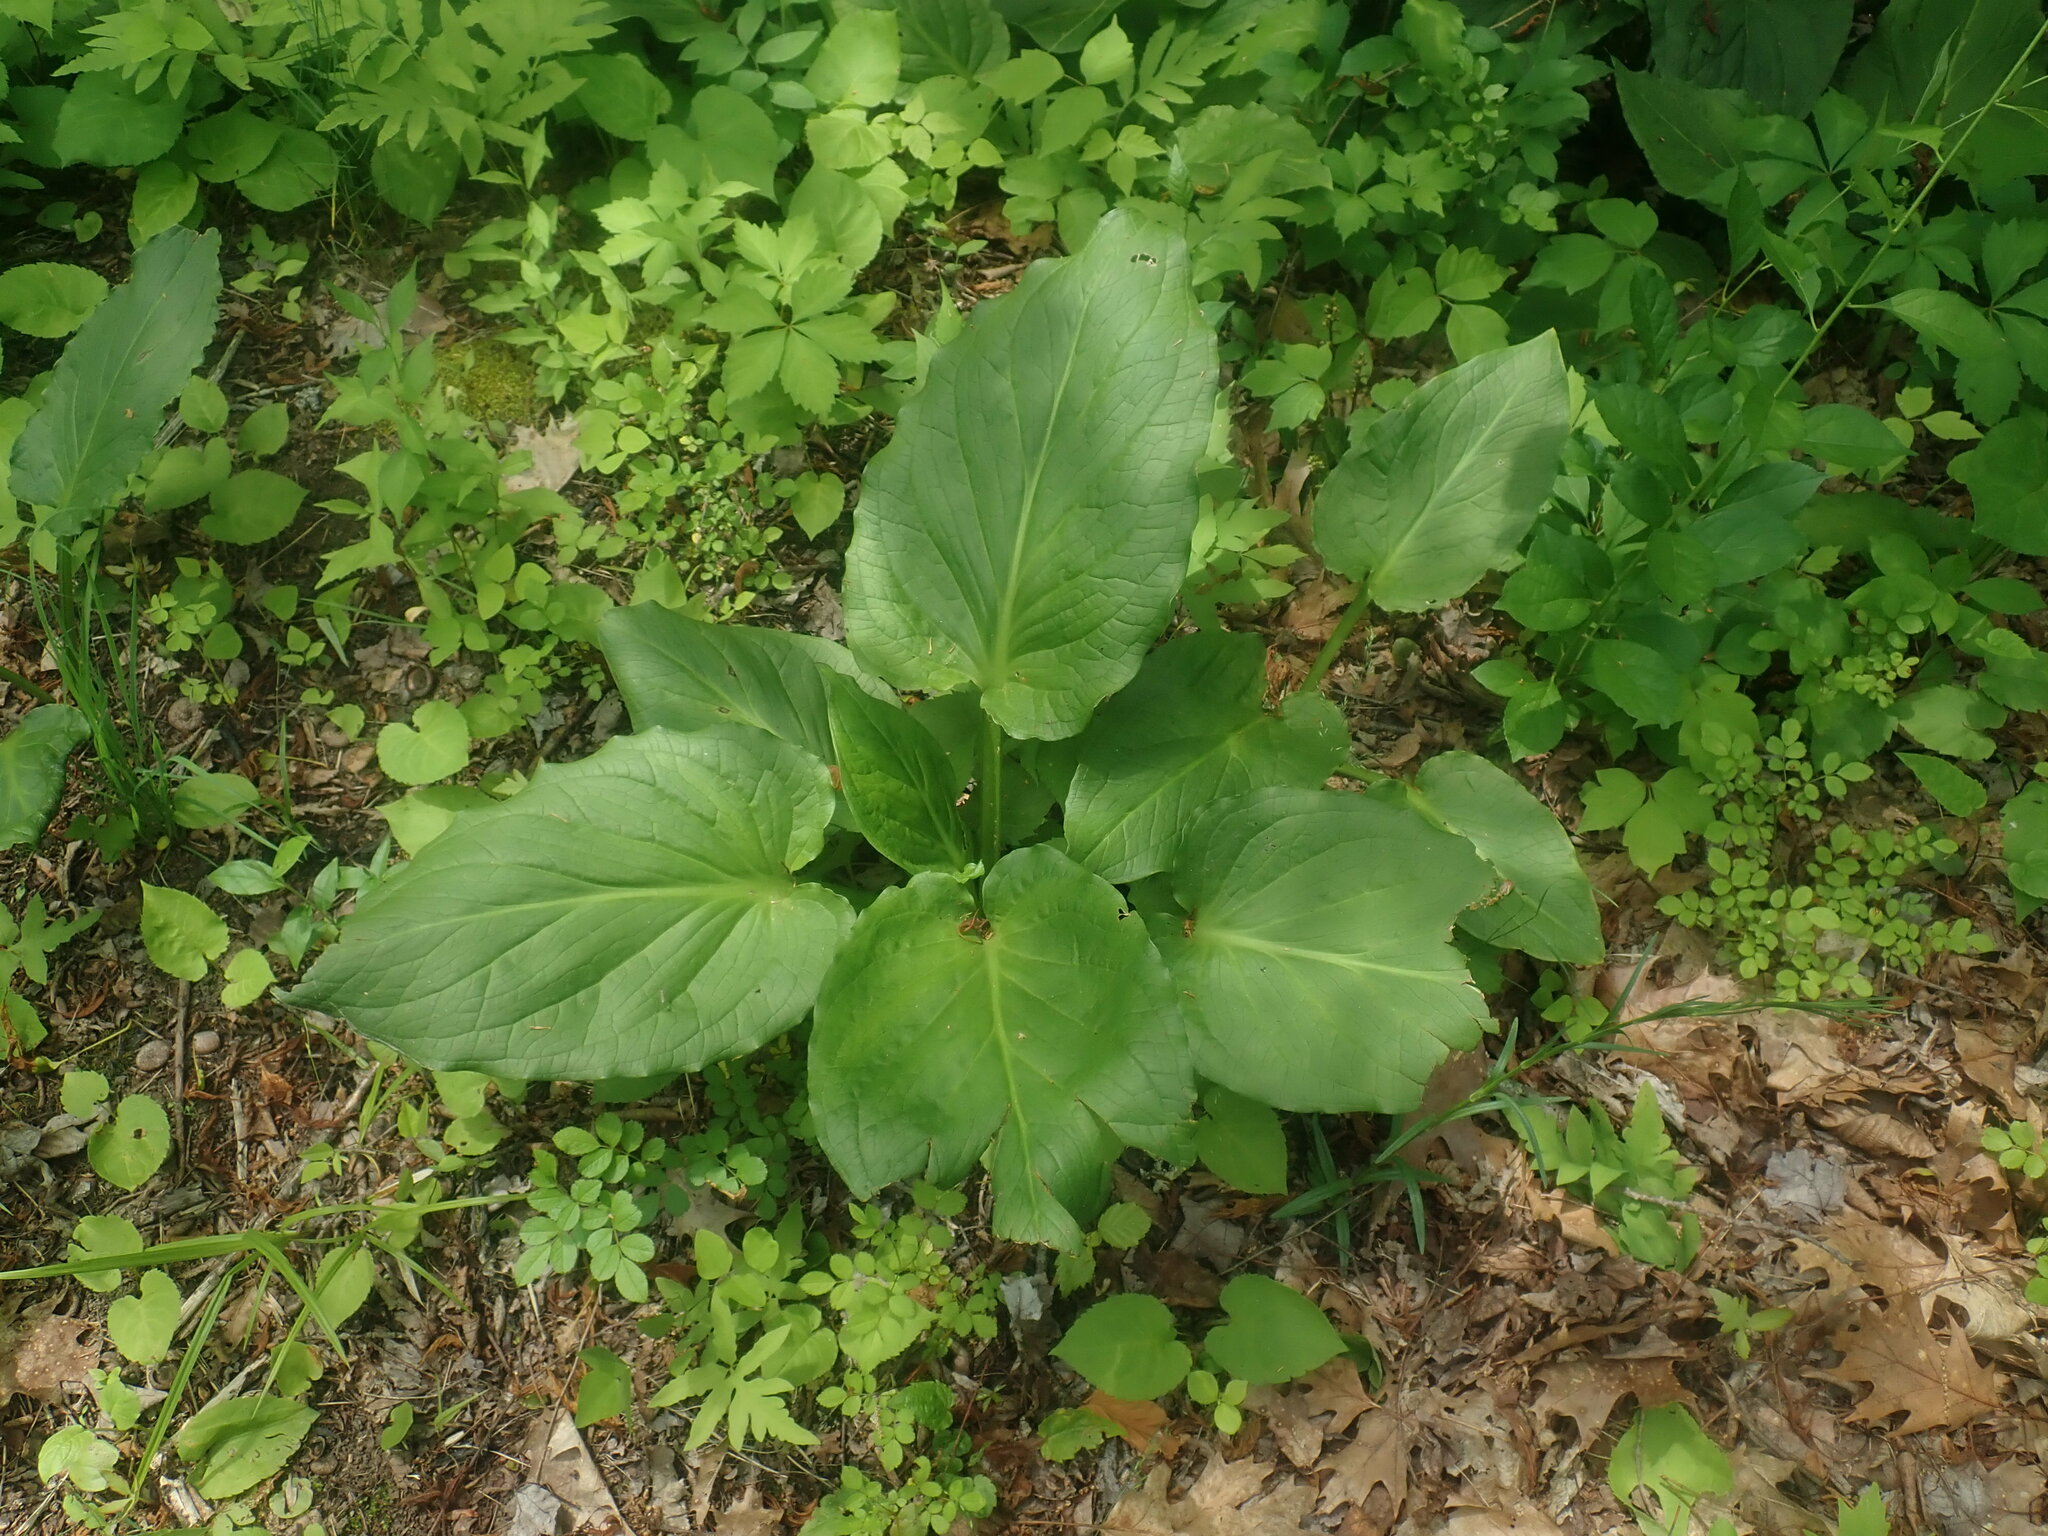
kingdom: Plantae
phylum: Tracheophyta
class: Liliopsida
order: Alismatales
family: Araceae
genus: Symplocarpus
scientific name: Symplocarpus foetidus
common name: Eastern skunk cabbage
